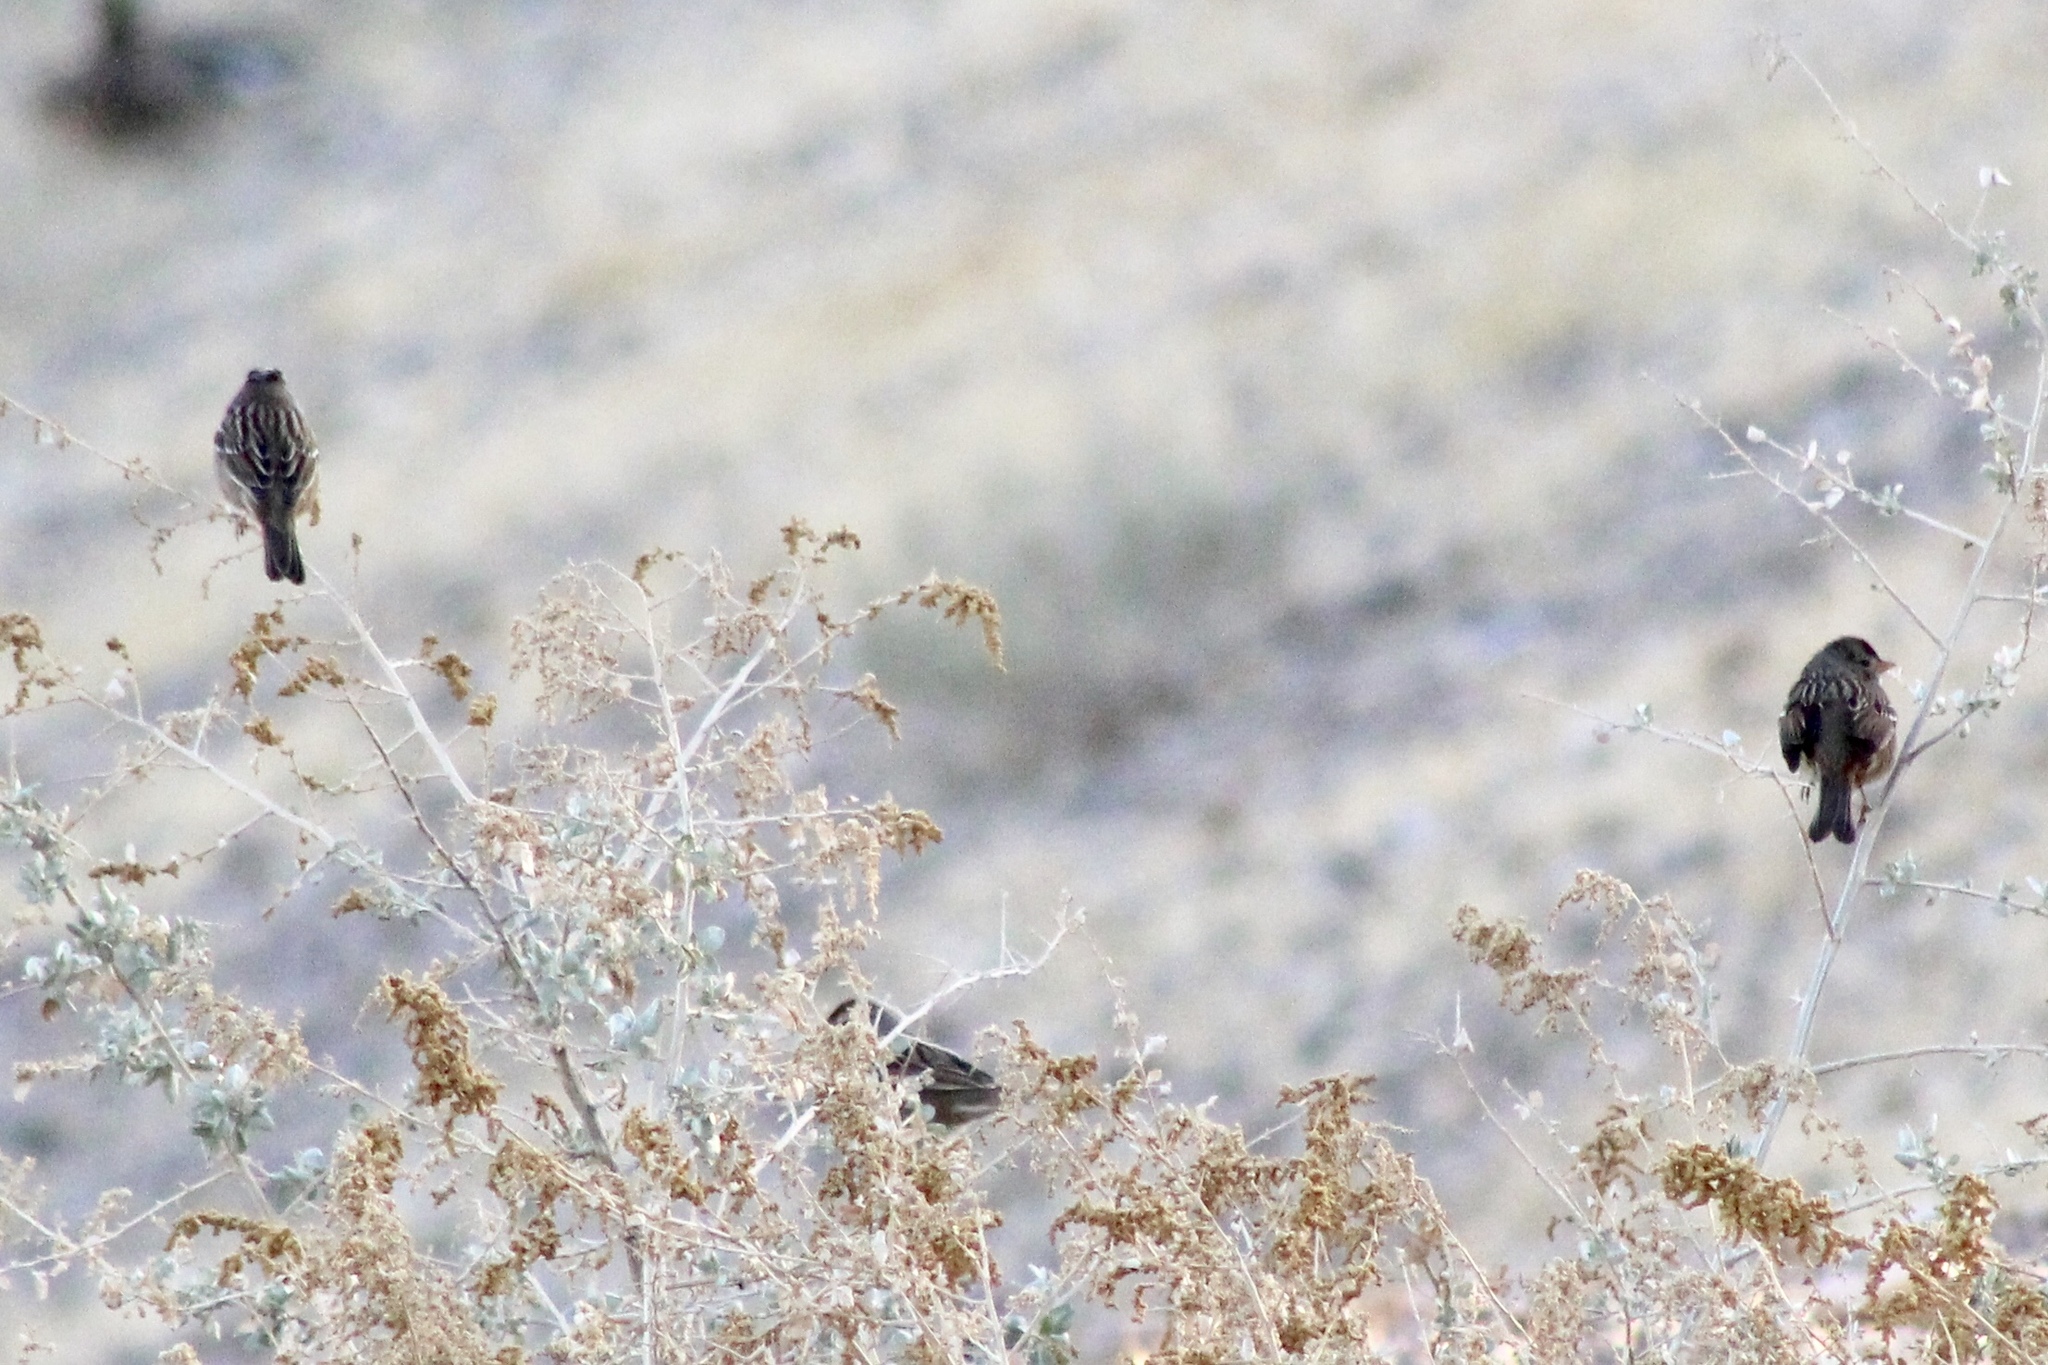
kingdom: Animalia
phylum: Chordata
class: Aves
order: Passeriformes
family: Passerellidae
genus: Zonotrichia
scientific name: Zonotrichia leucophrys
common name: White-crowned sparrow
